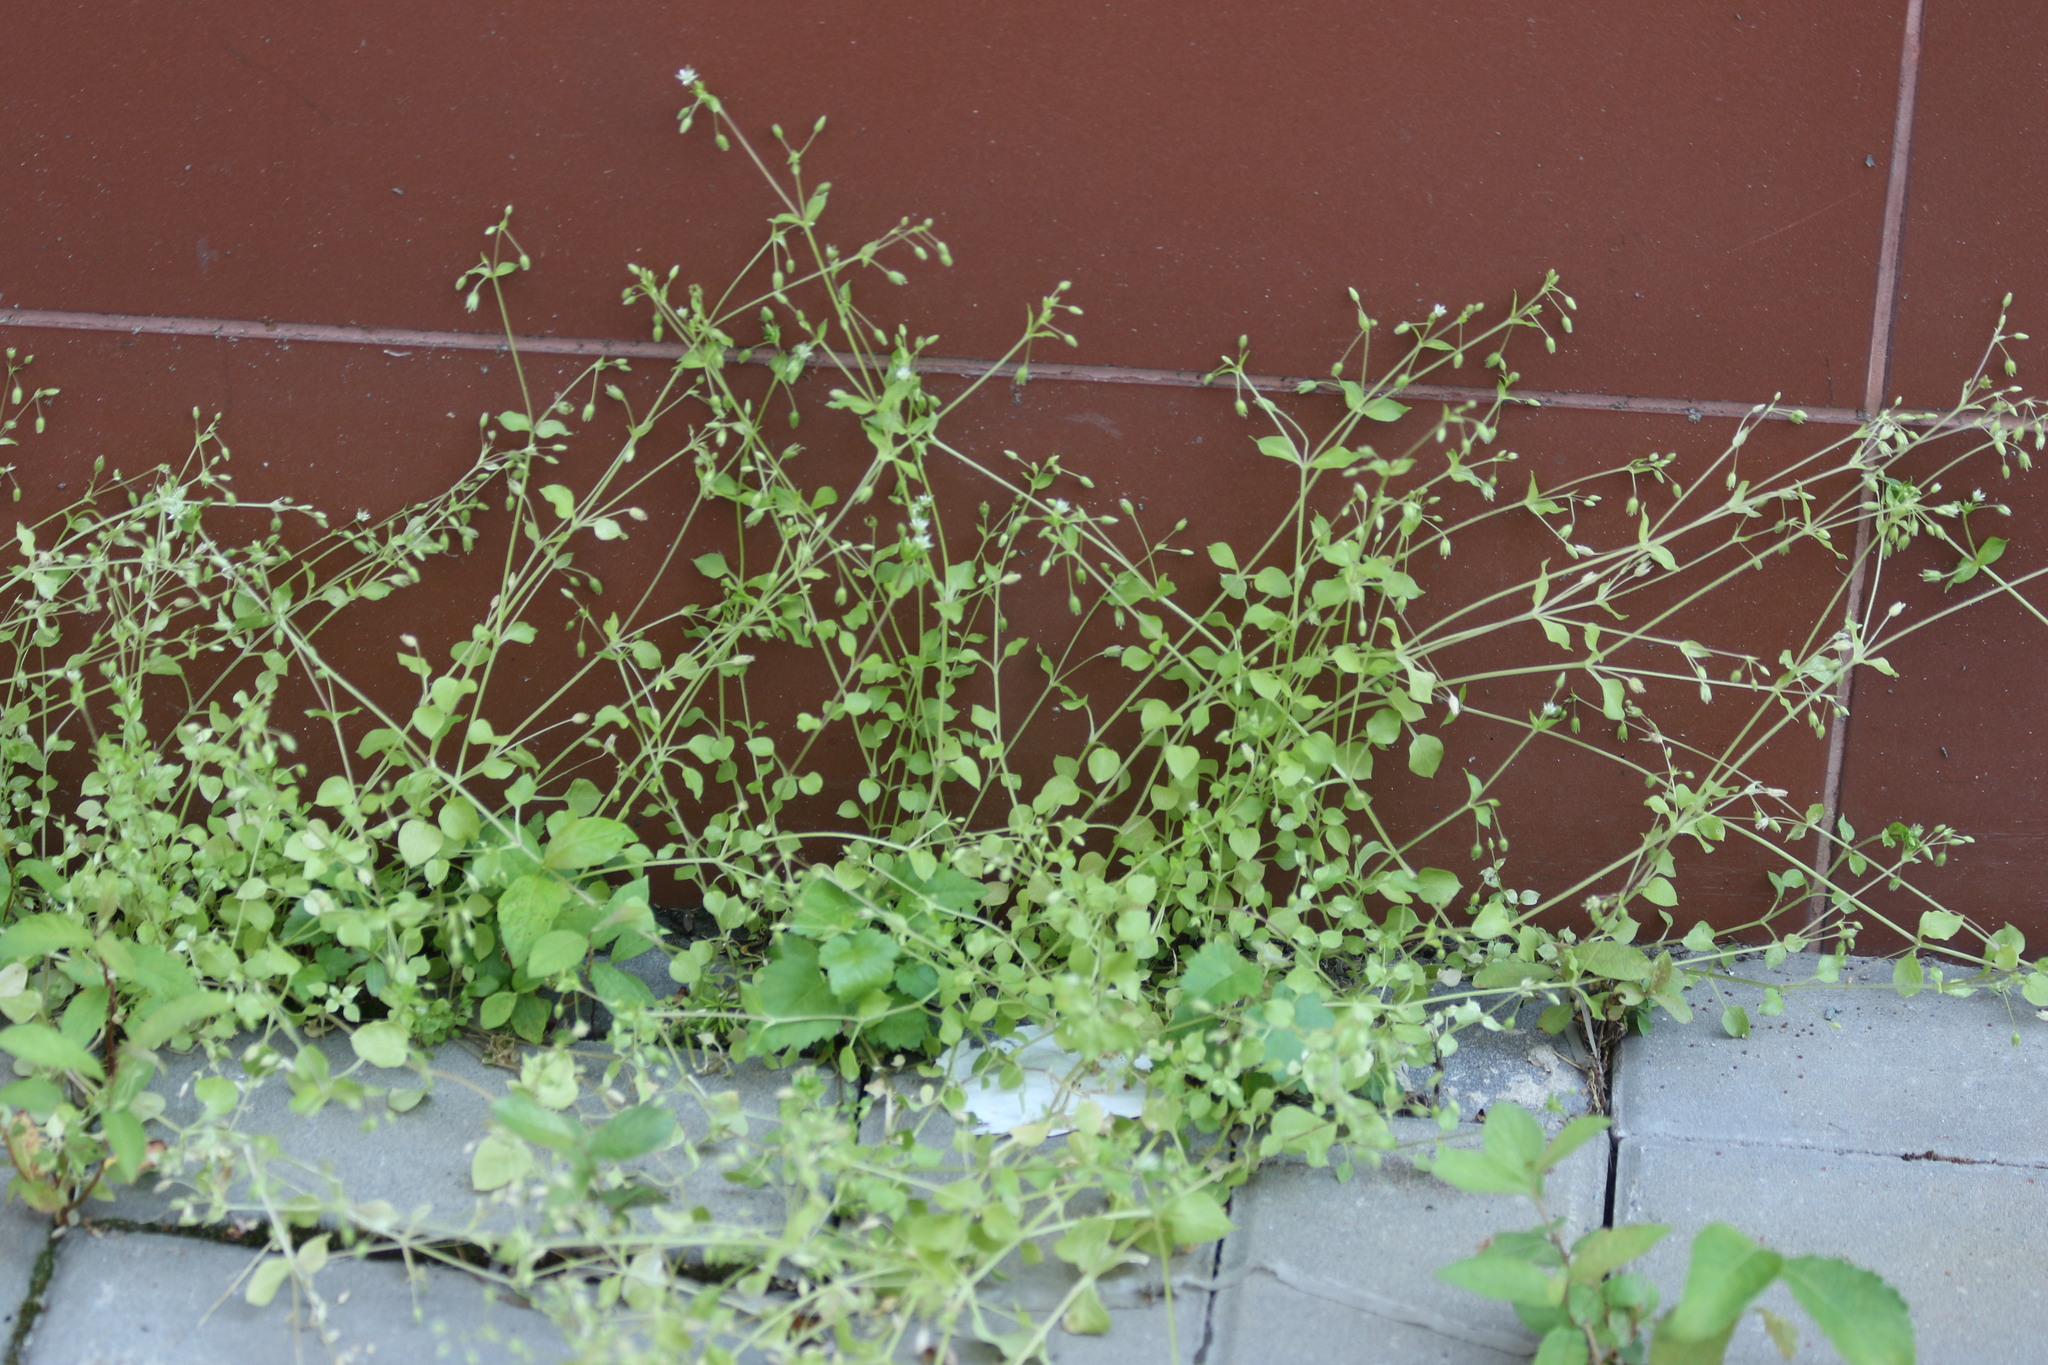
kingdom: Plantae
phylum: Tracheophyta
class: Magnoliopsida
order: Caryophyllales
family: Caryophyllaceae
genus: Stellaria
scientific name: Stellaria media
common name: Common chickweed
